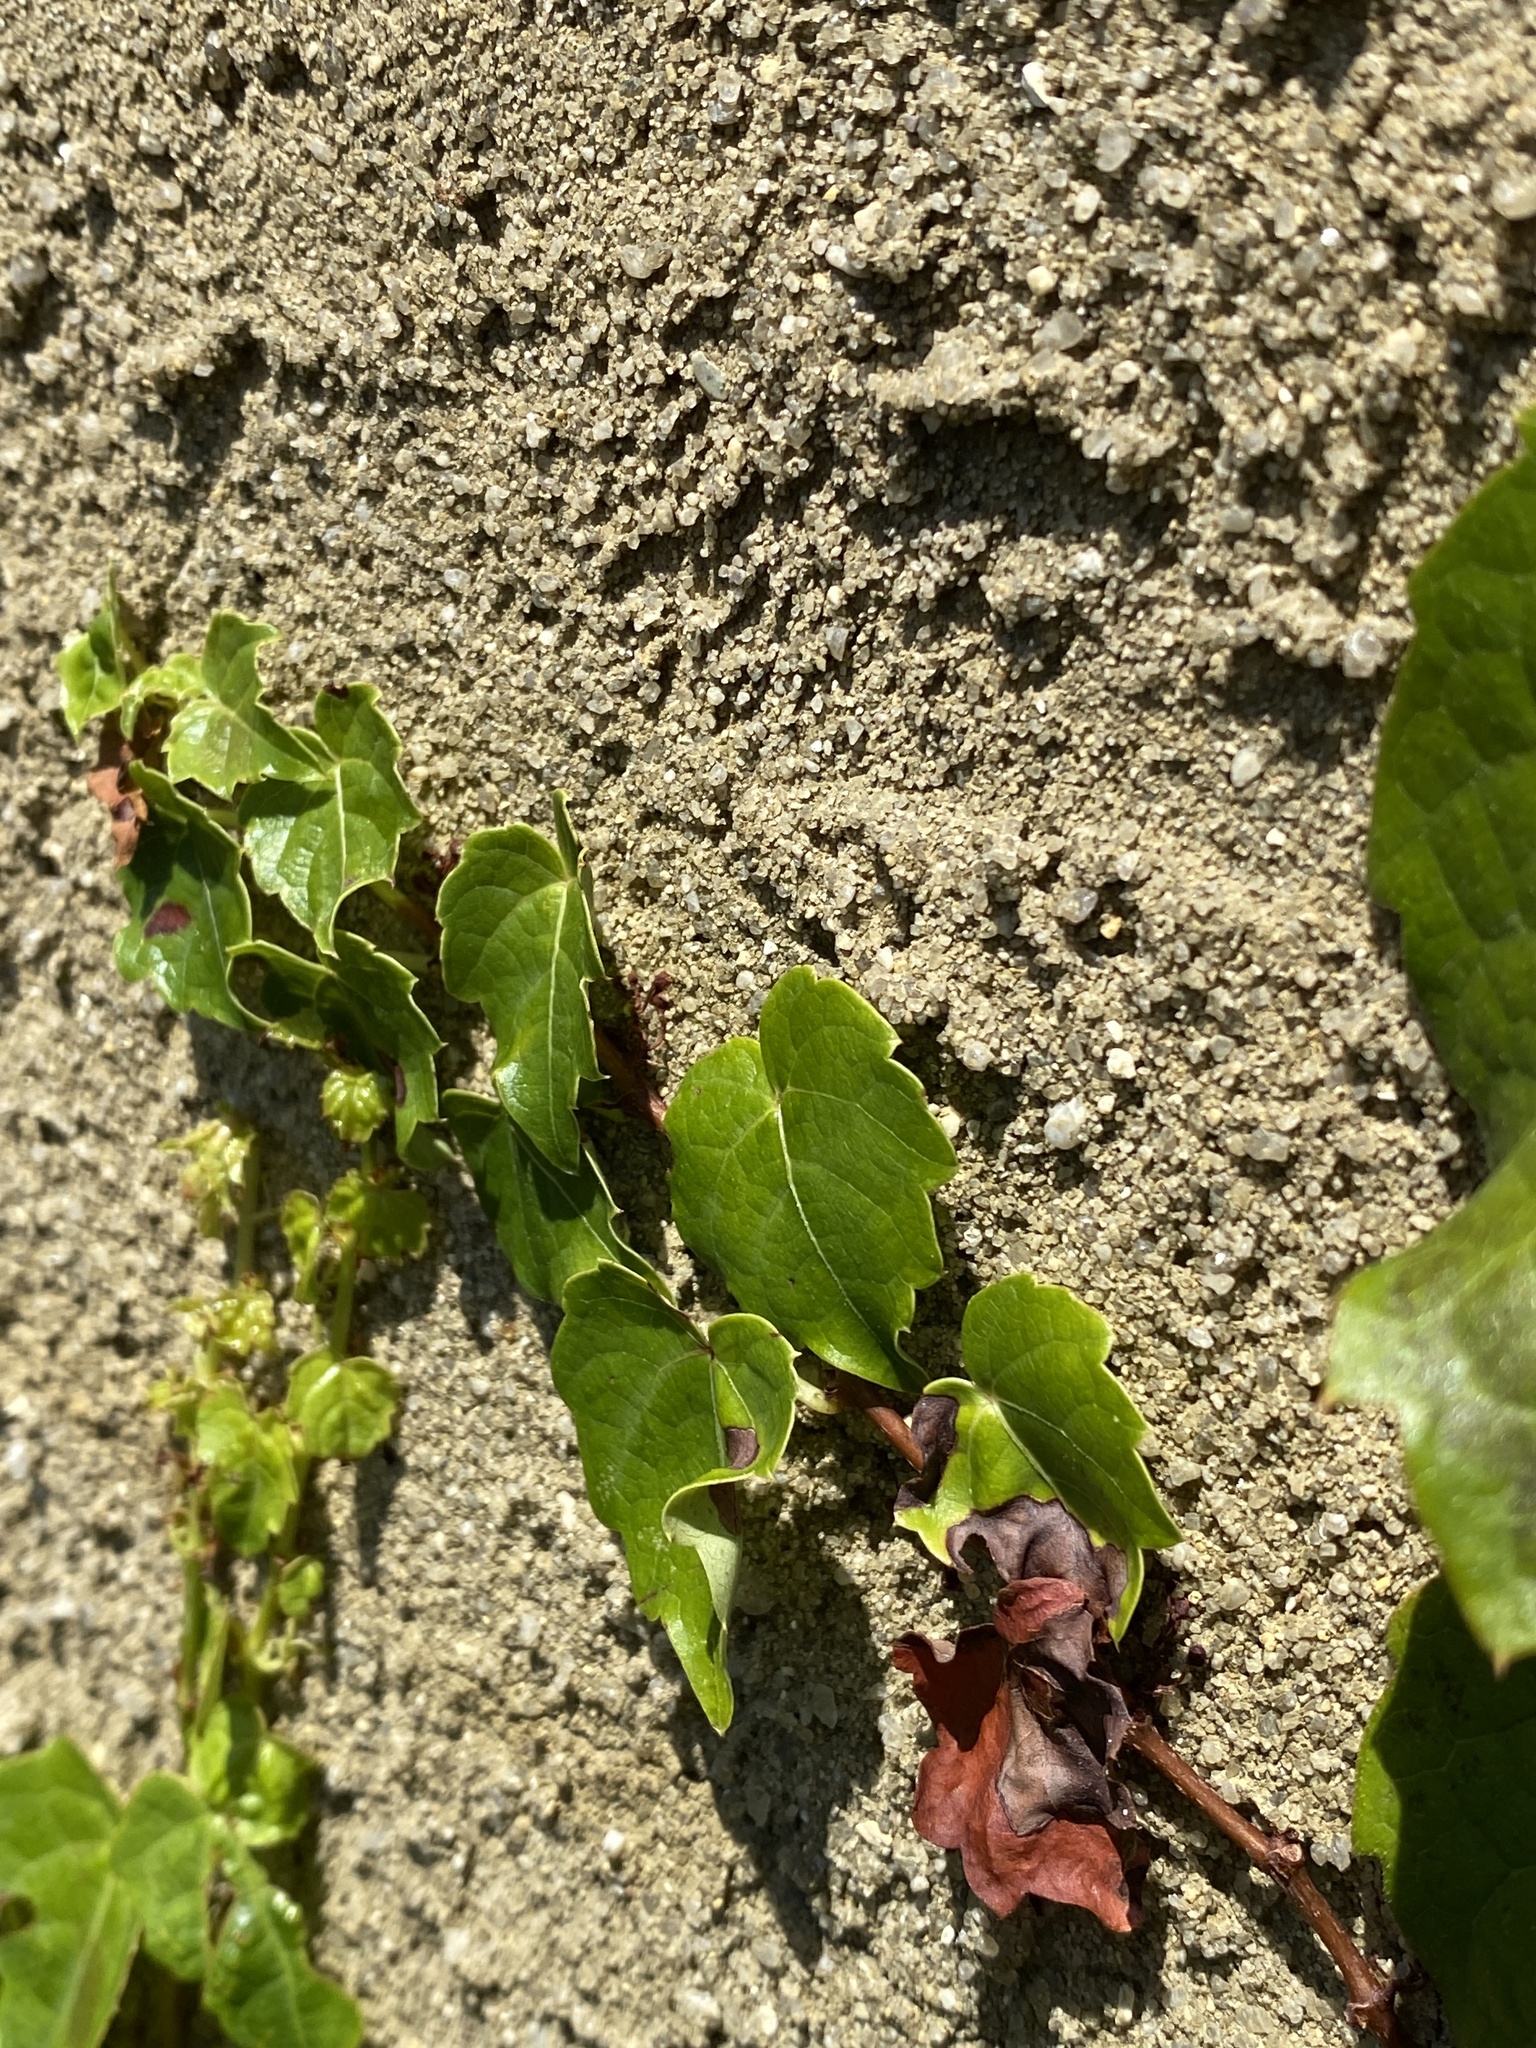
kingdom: Plantae
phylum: Tracheophyta
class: Magnoliopsida
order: Vitales
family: Vitaceae
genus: Parthenocissus
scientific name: Parthenocissus tricuspidata
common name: Boston ivy
